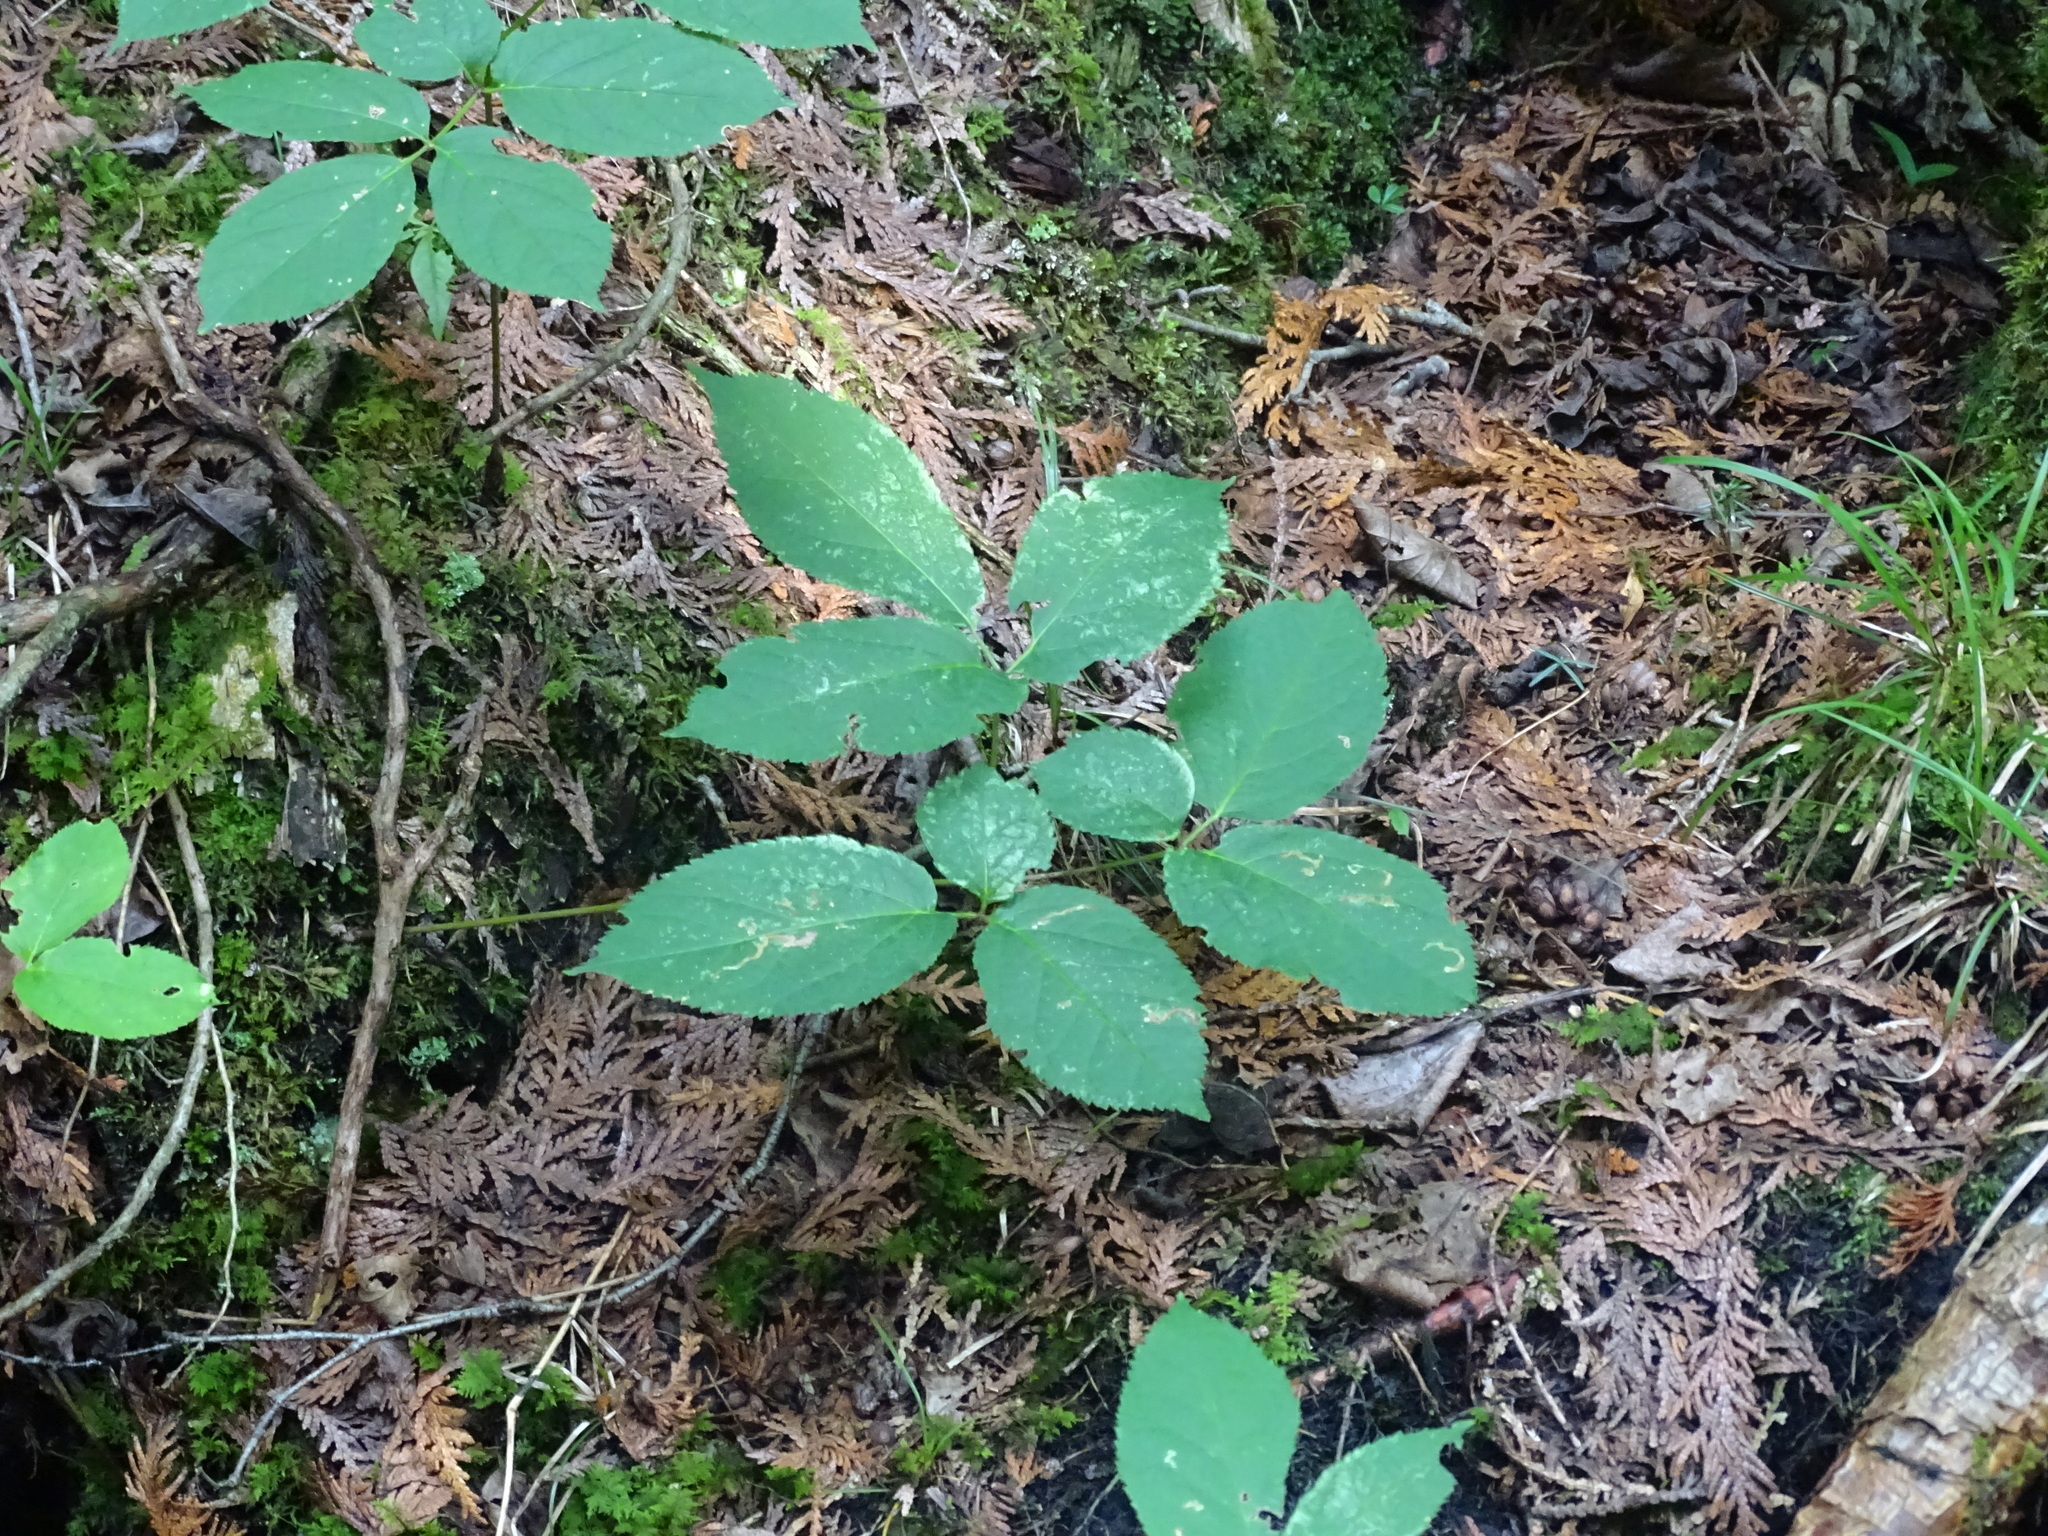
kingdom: Plantae
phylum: Tracheophyta
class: Magnoliopsida
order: Apiales
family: Araliaceae
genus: Aralia
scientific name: Aralia nudicaulis
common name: Wild sarsaparilla
